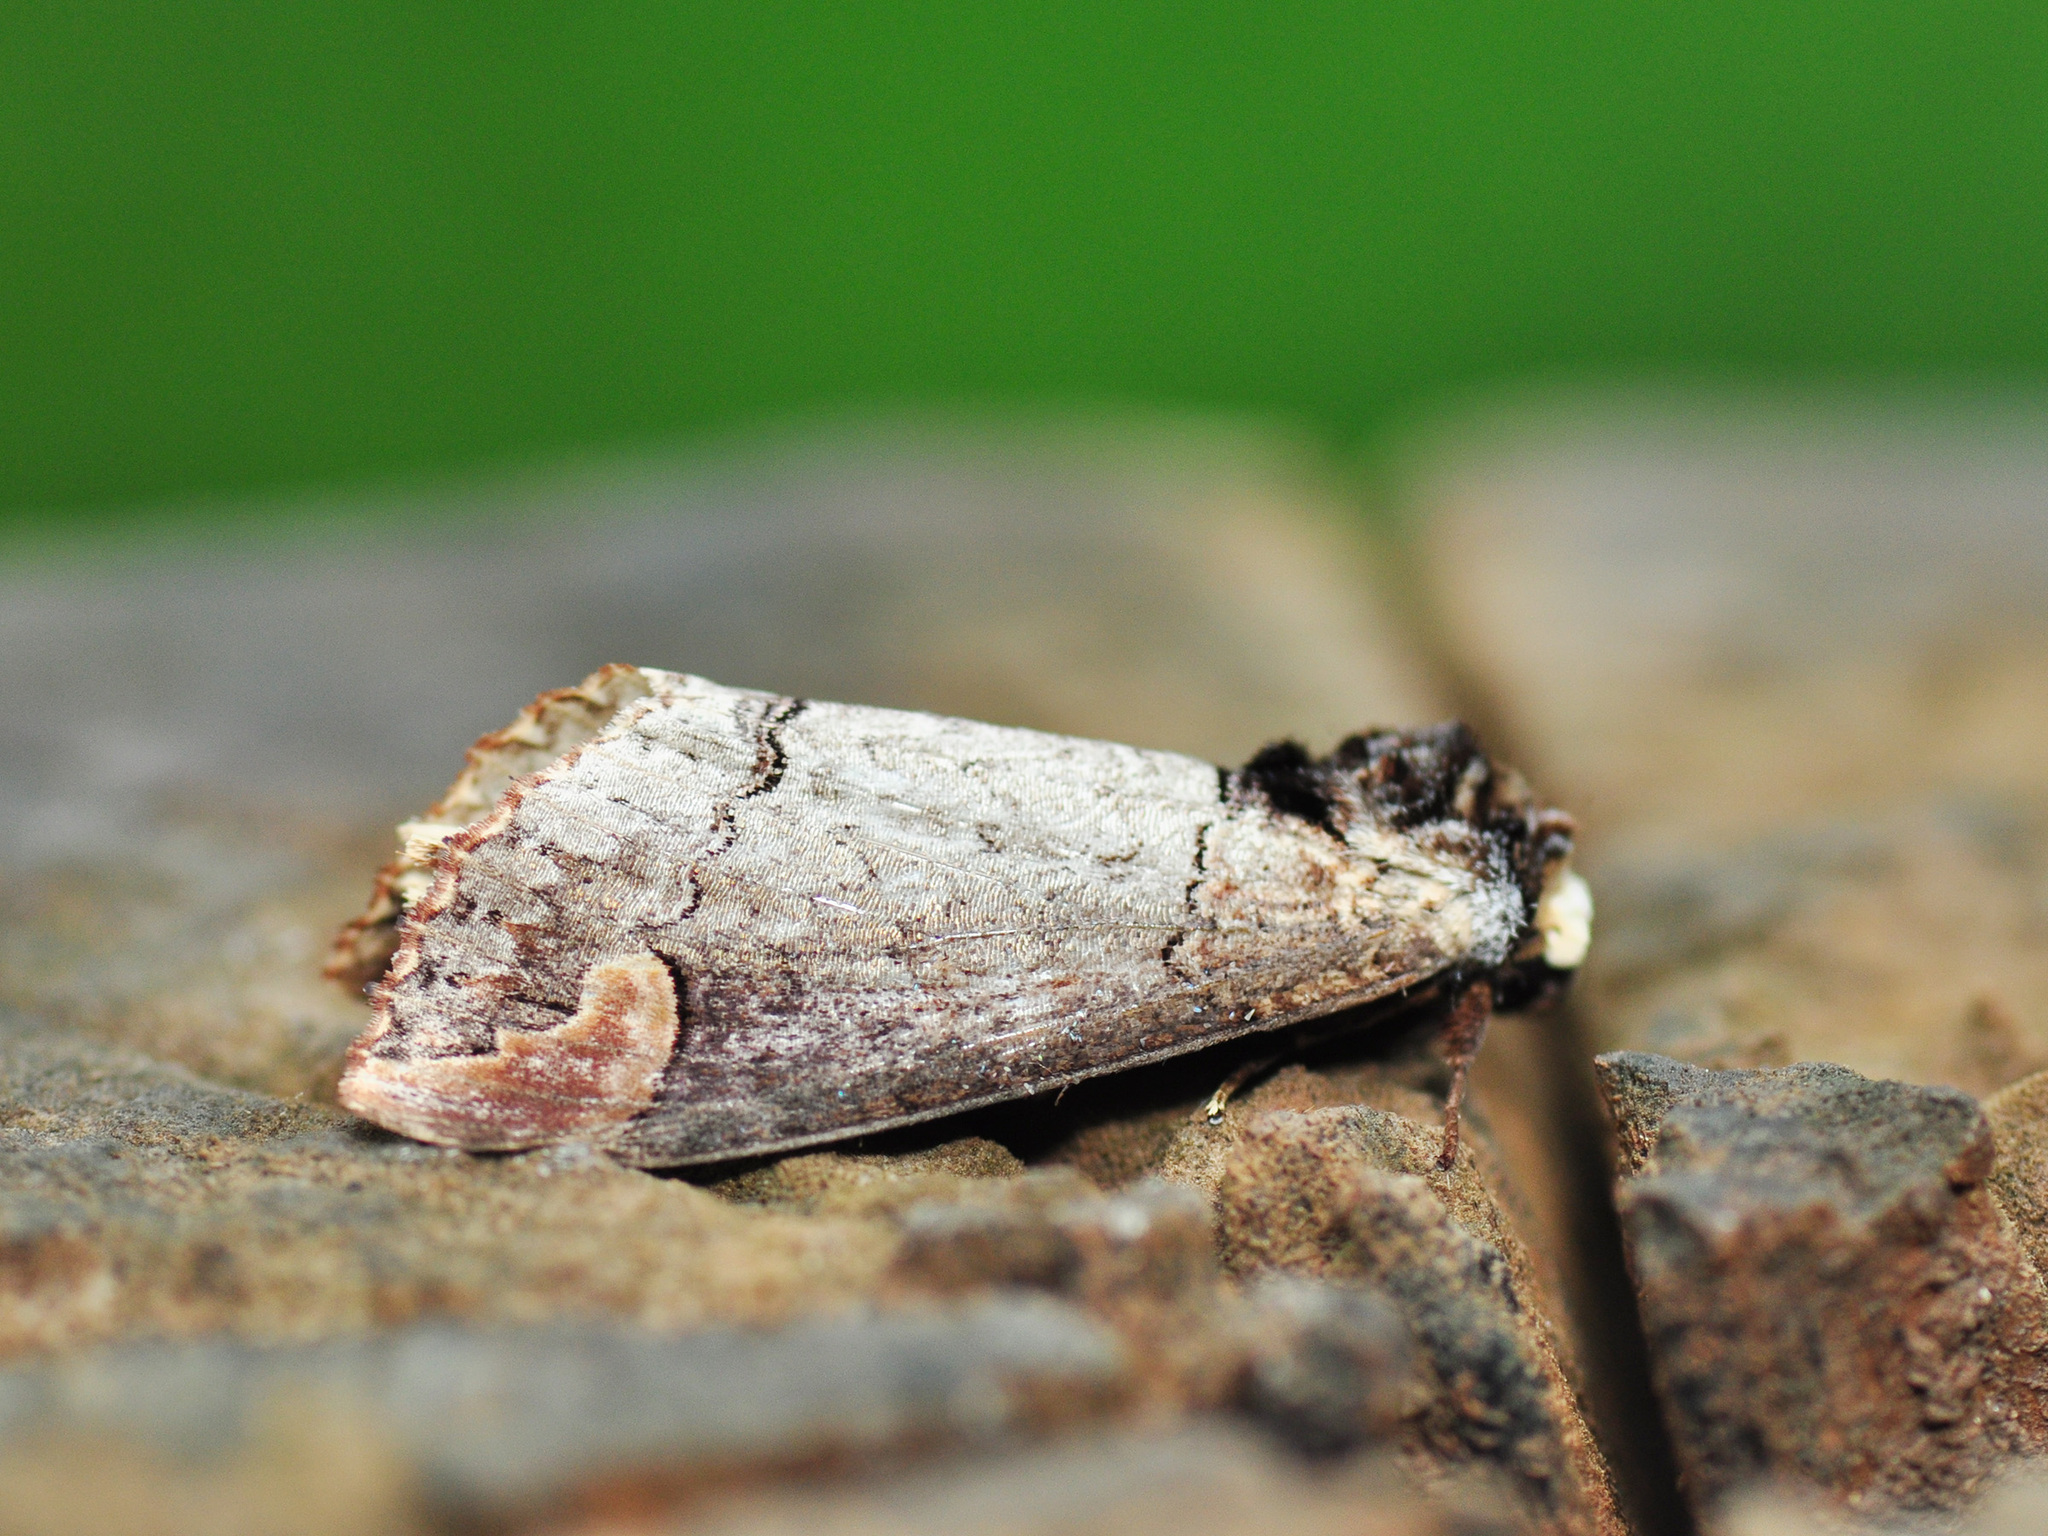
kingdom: Animalia
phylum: Arthropoda
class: Insecta
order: Lepidoptera
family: Notodontidae
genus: Phalera
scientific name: Phalera cossoides
